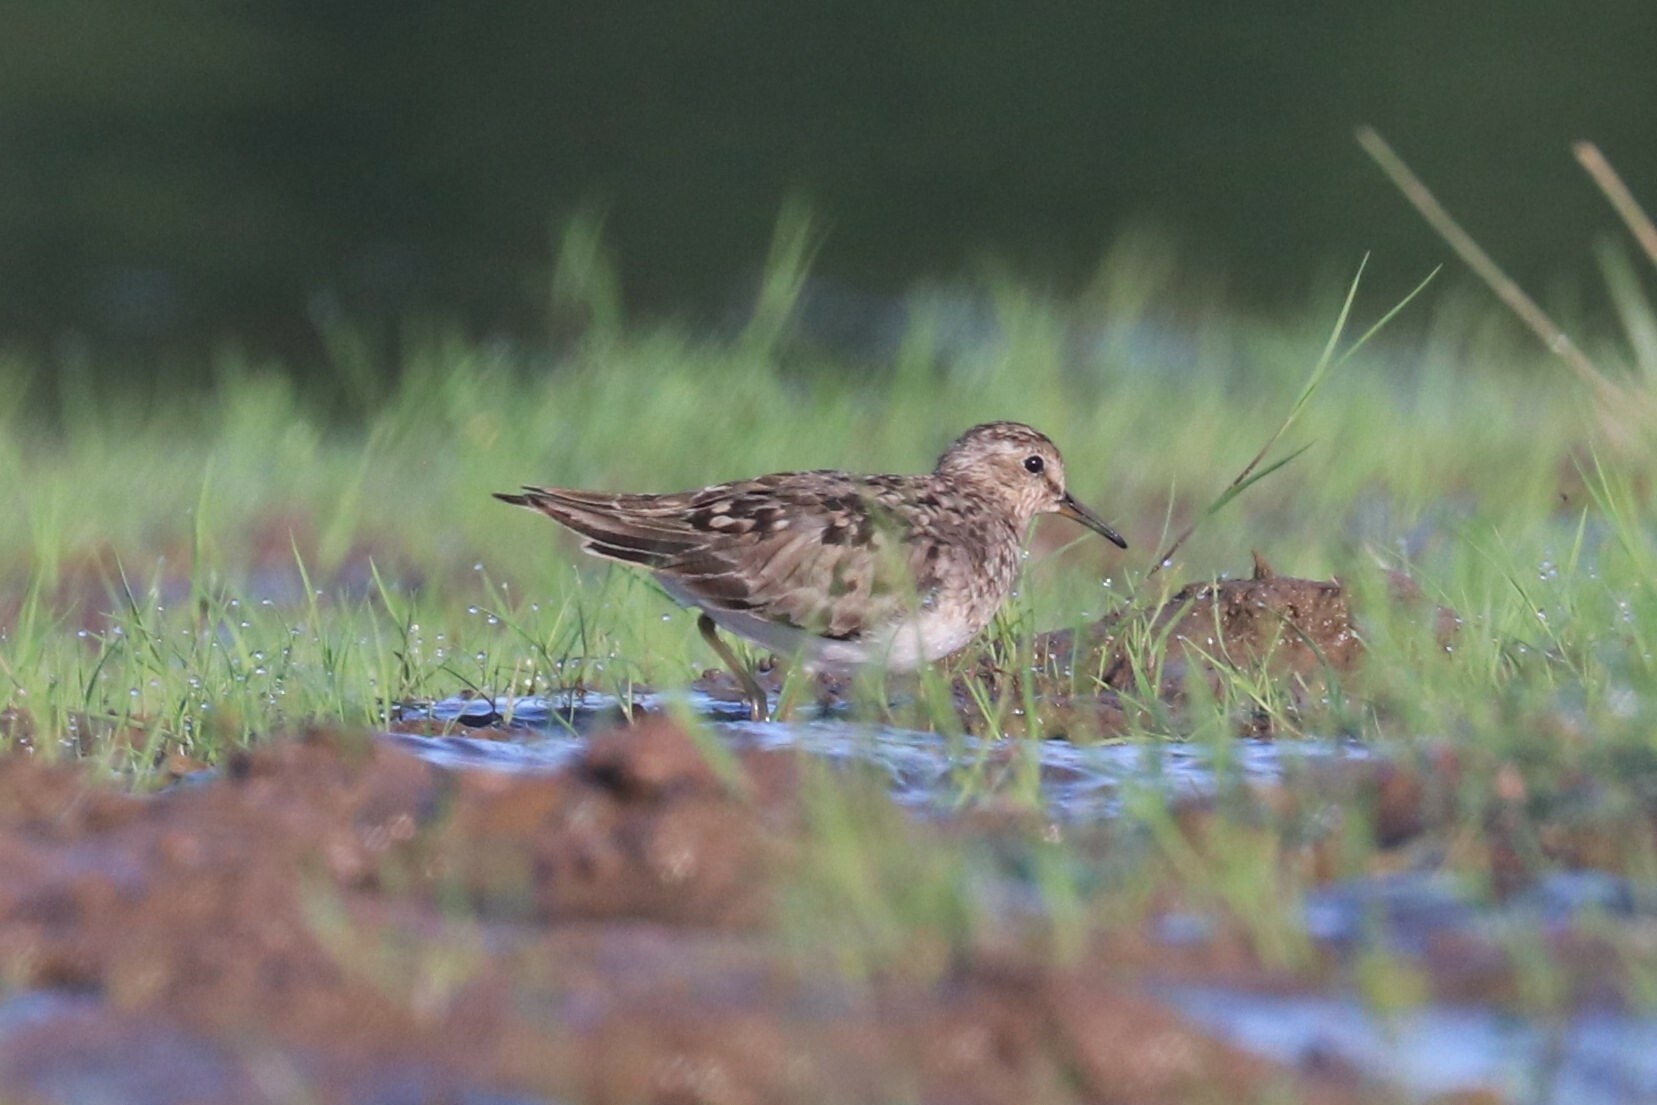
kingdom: Animalia
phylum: Chordata
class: Aves
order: Charadriiformes
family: Scolopacidae
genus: Calidris
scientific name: Calidris temminckii
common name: Temminck's stint
